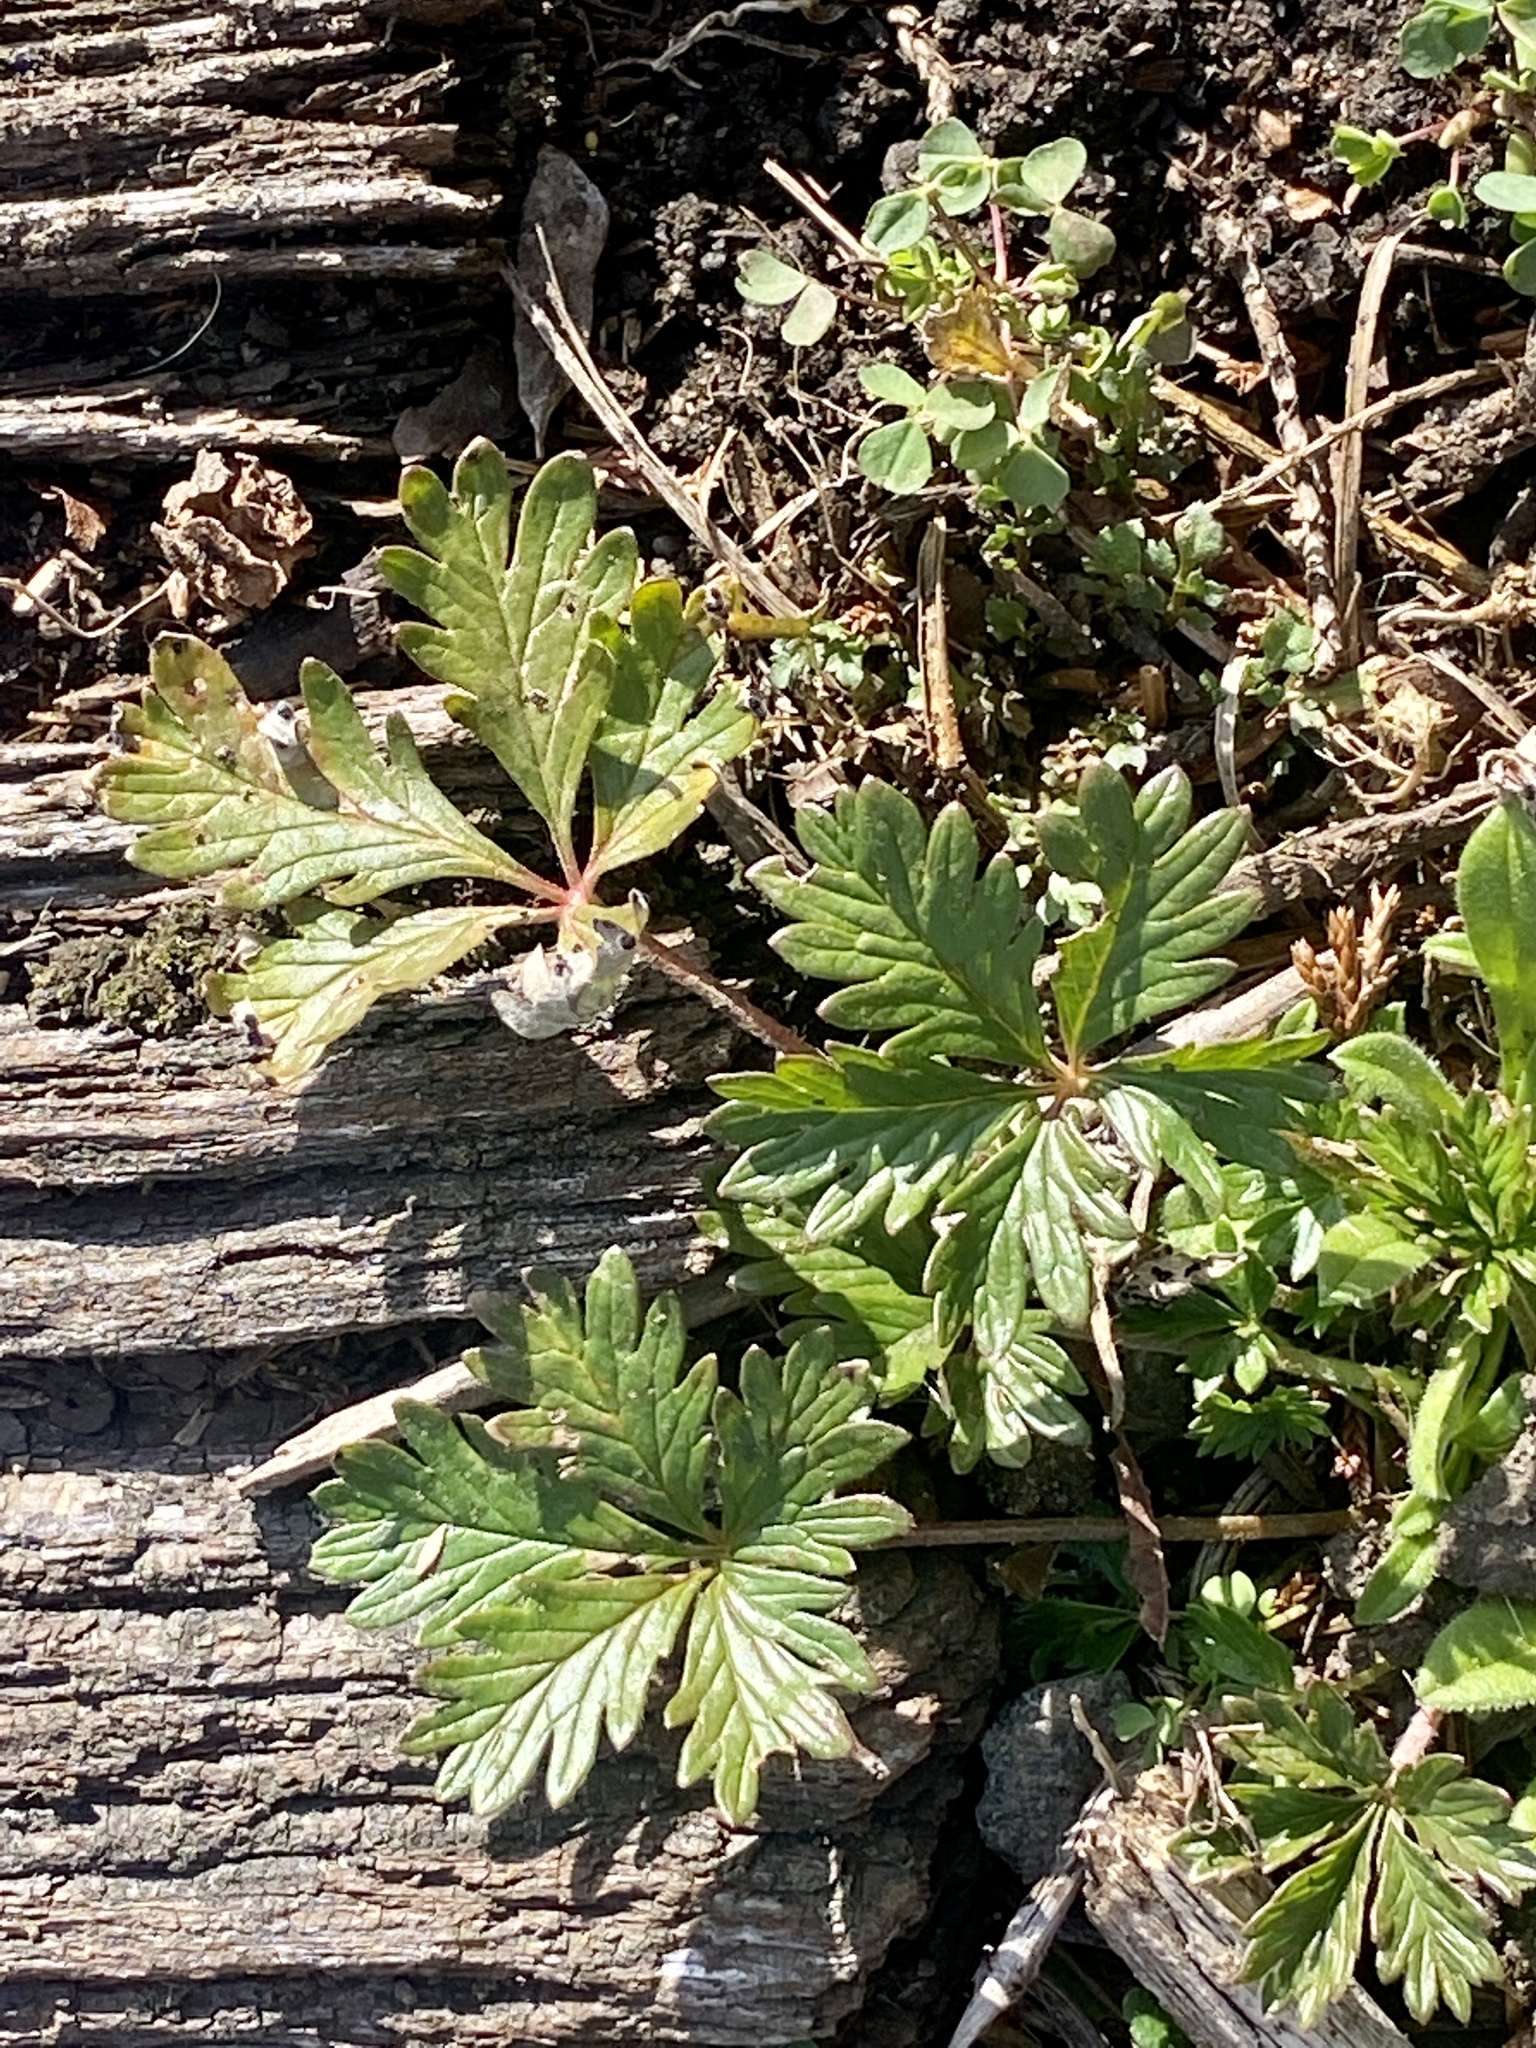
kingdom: Plantae
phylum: Tracheophyta
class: Magnoliopsida
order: Rosales
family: Rosaceae
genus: Potentilla
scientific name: Potentilla argentea
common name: Hoary cinquefoil
